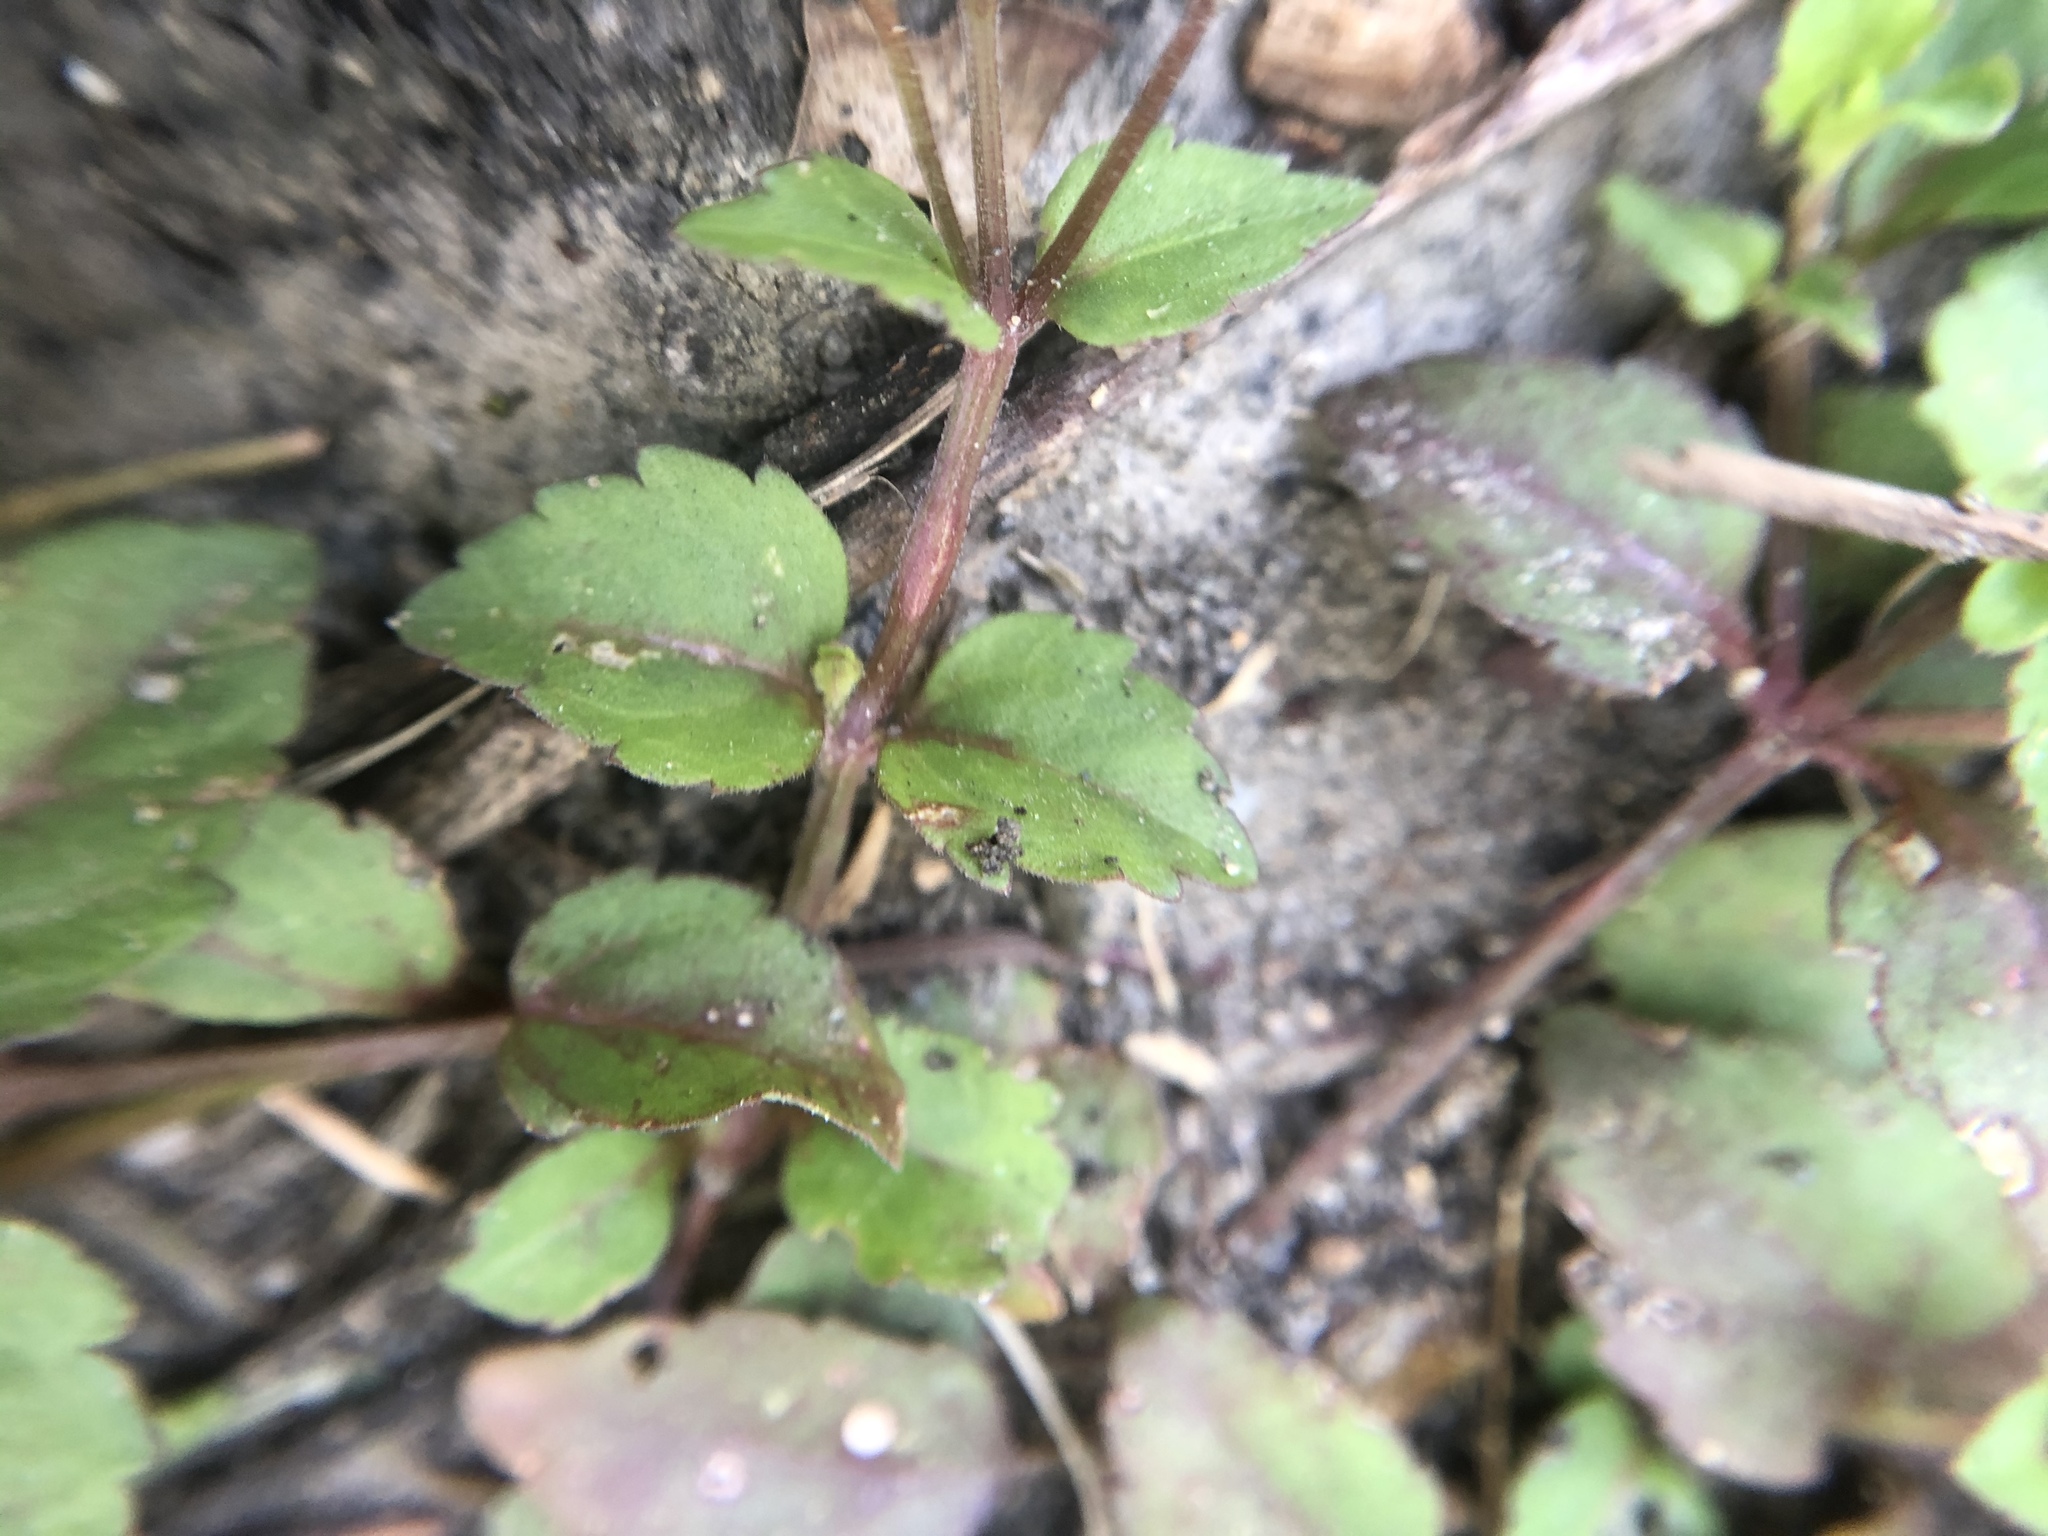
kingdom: Plantae
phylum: Tracheophyta
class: Magnoliopsida
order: Lamiales
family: Linderniaceae
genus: Torenia
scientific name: Torenia crustacea
